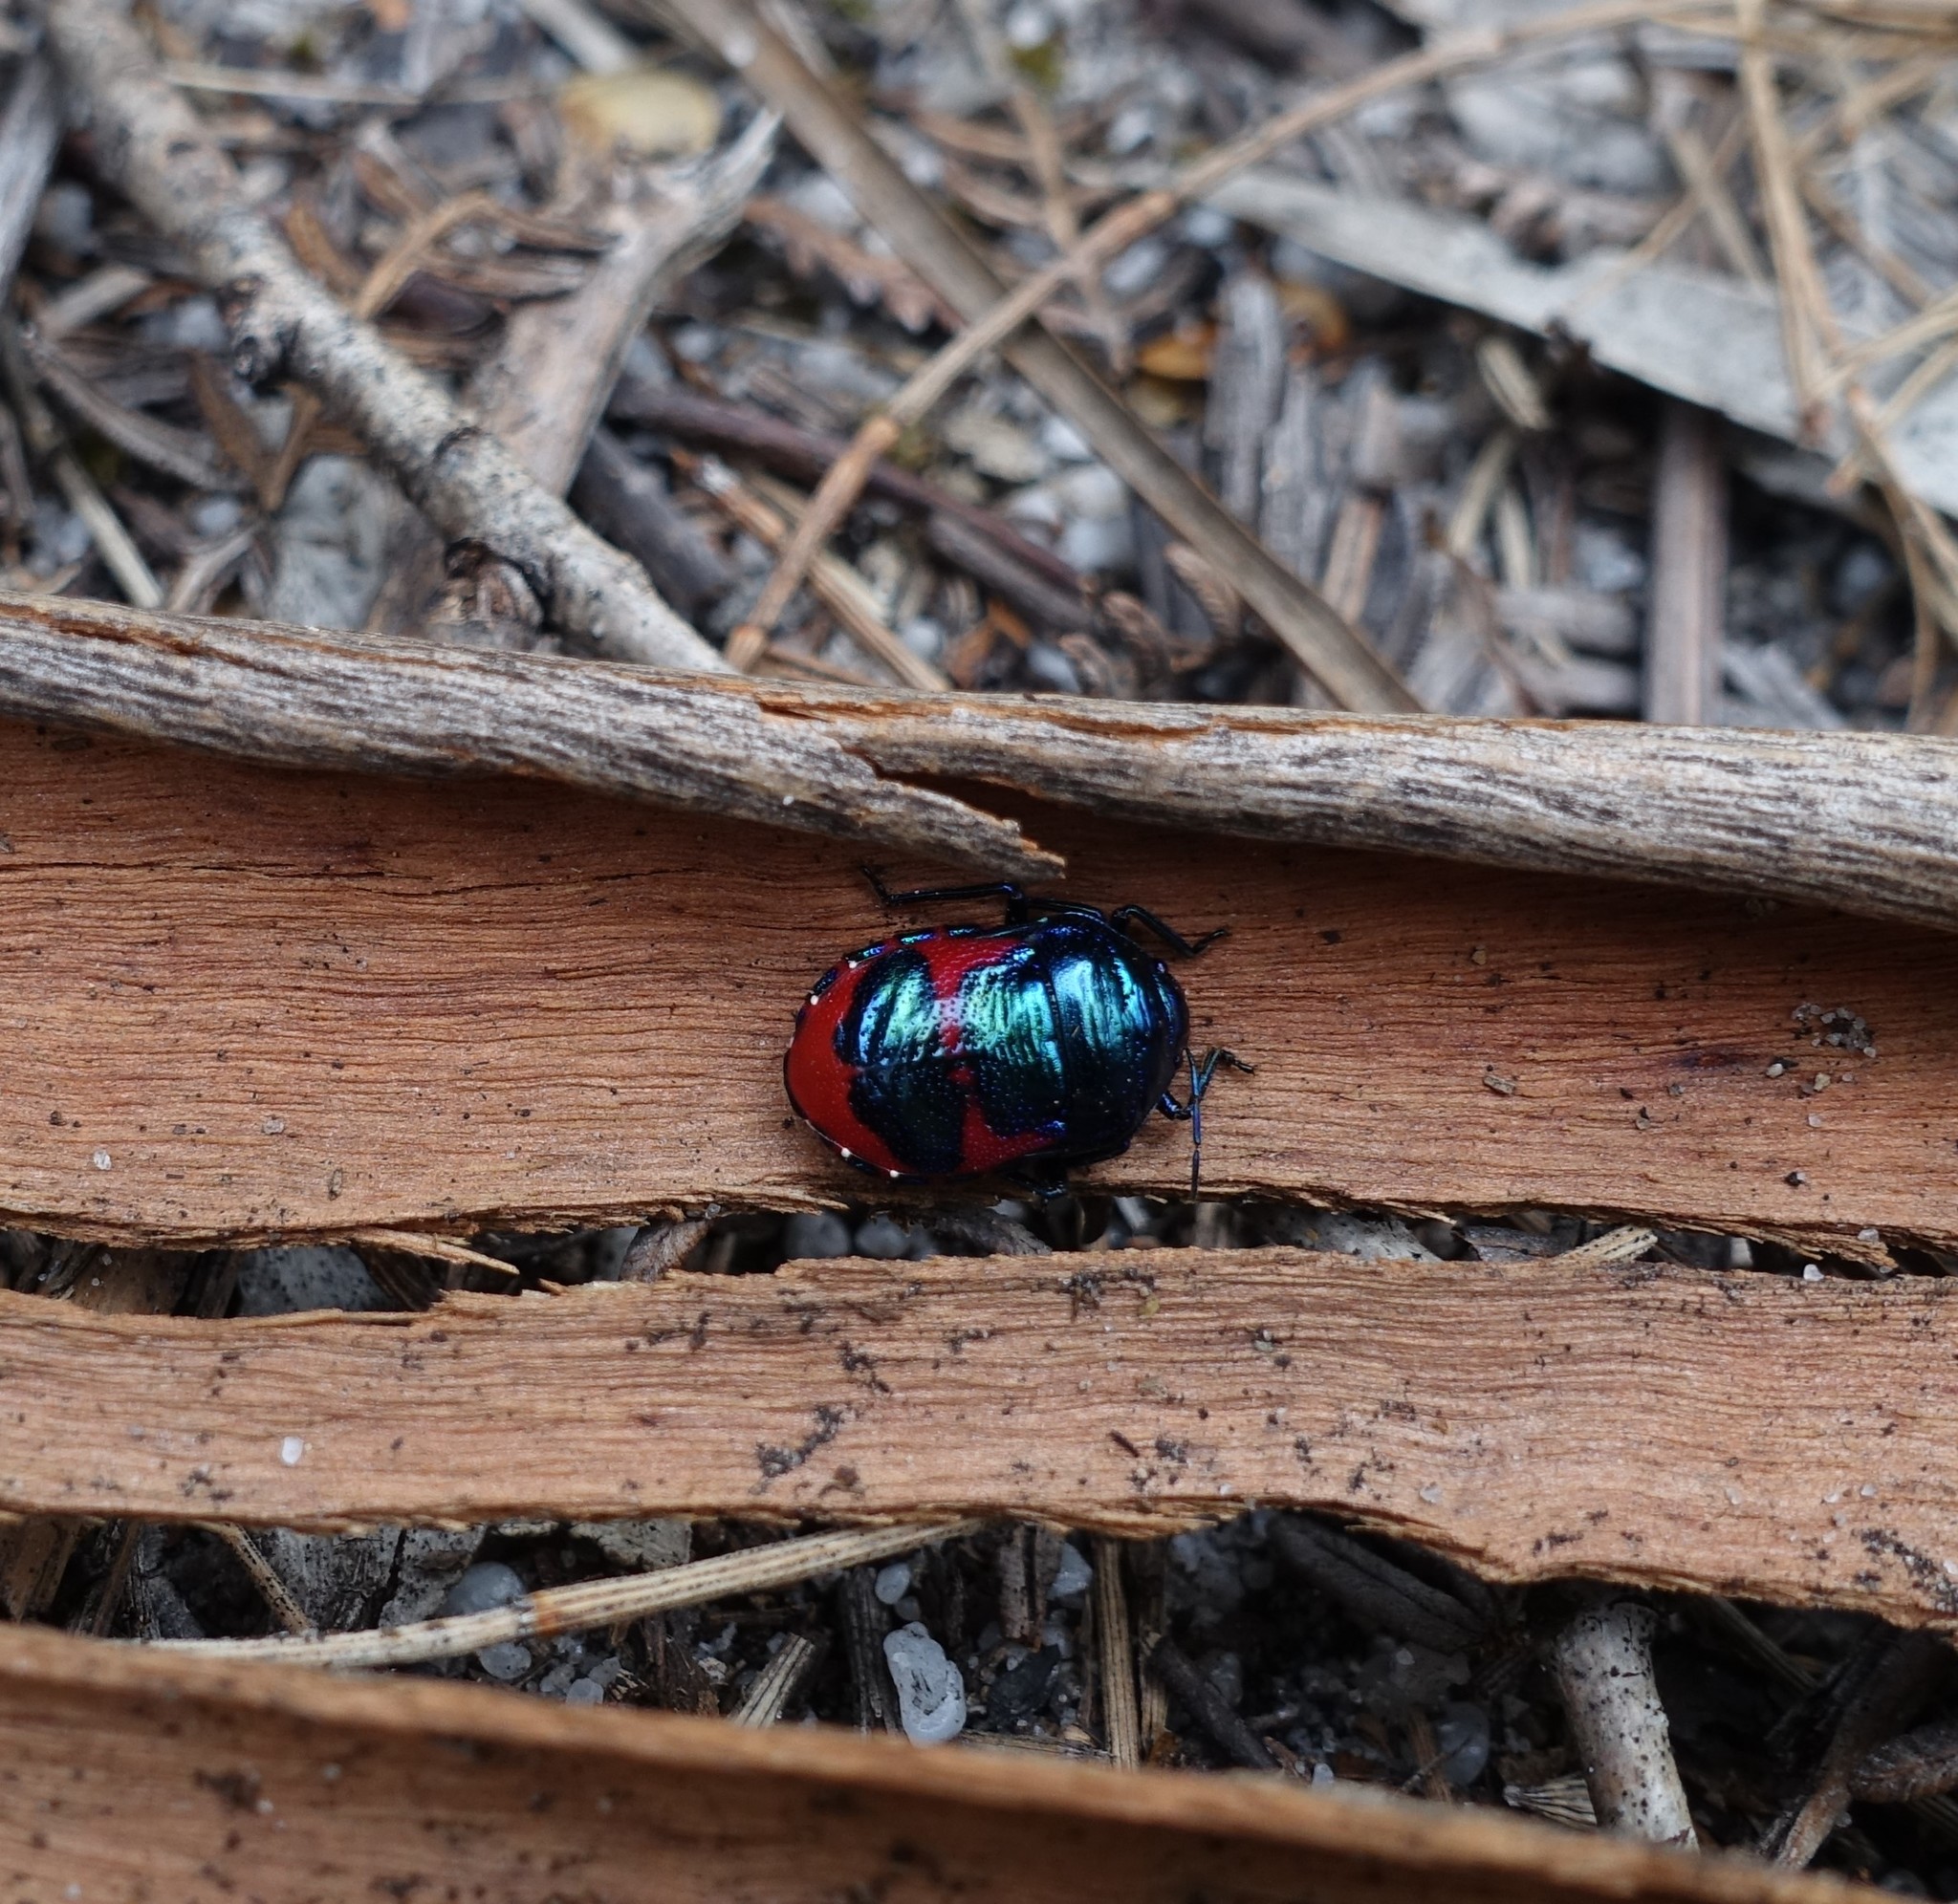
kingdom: Animalia
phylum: Arthropoda
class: Insecta
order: Hemiptera
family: Scutelleridae
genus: Choerocoris
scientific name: Choerocoris paganus
